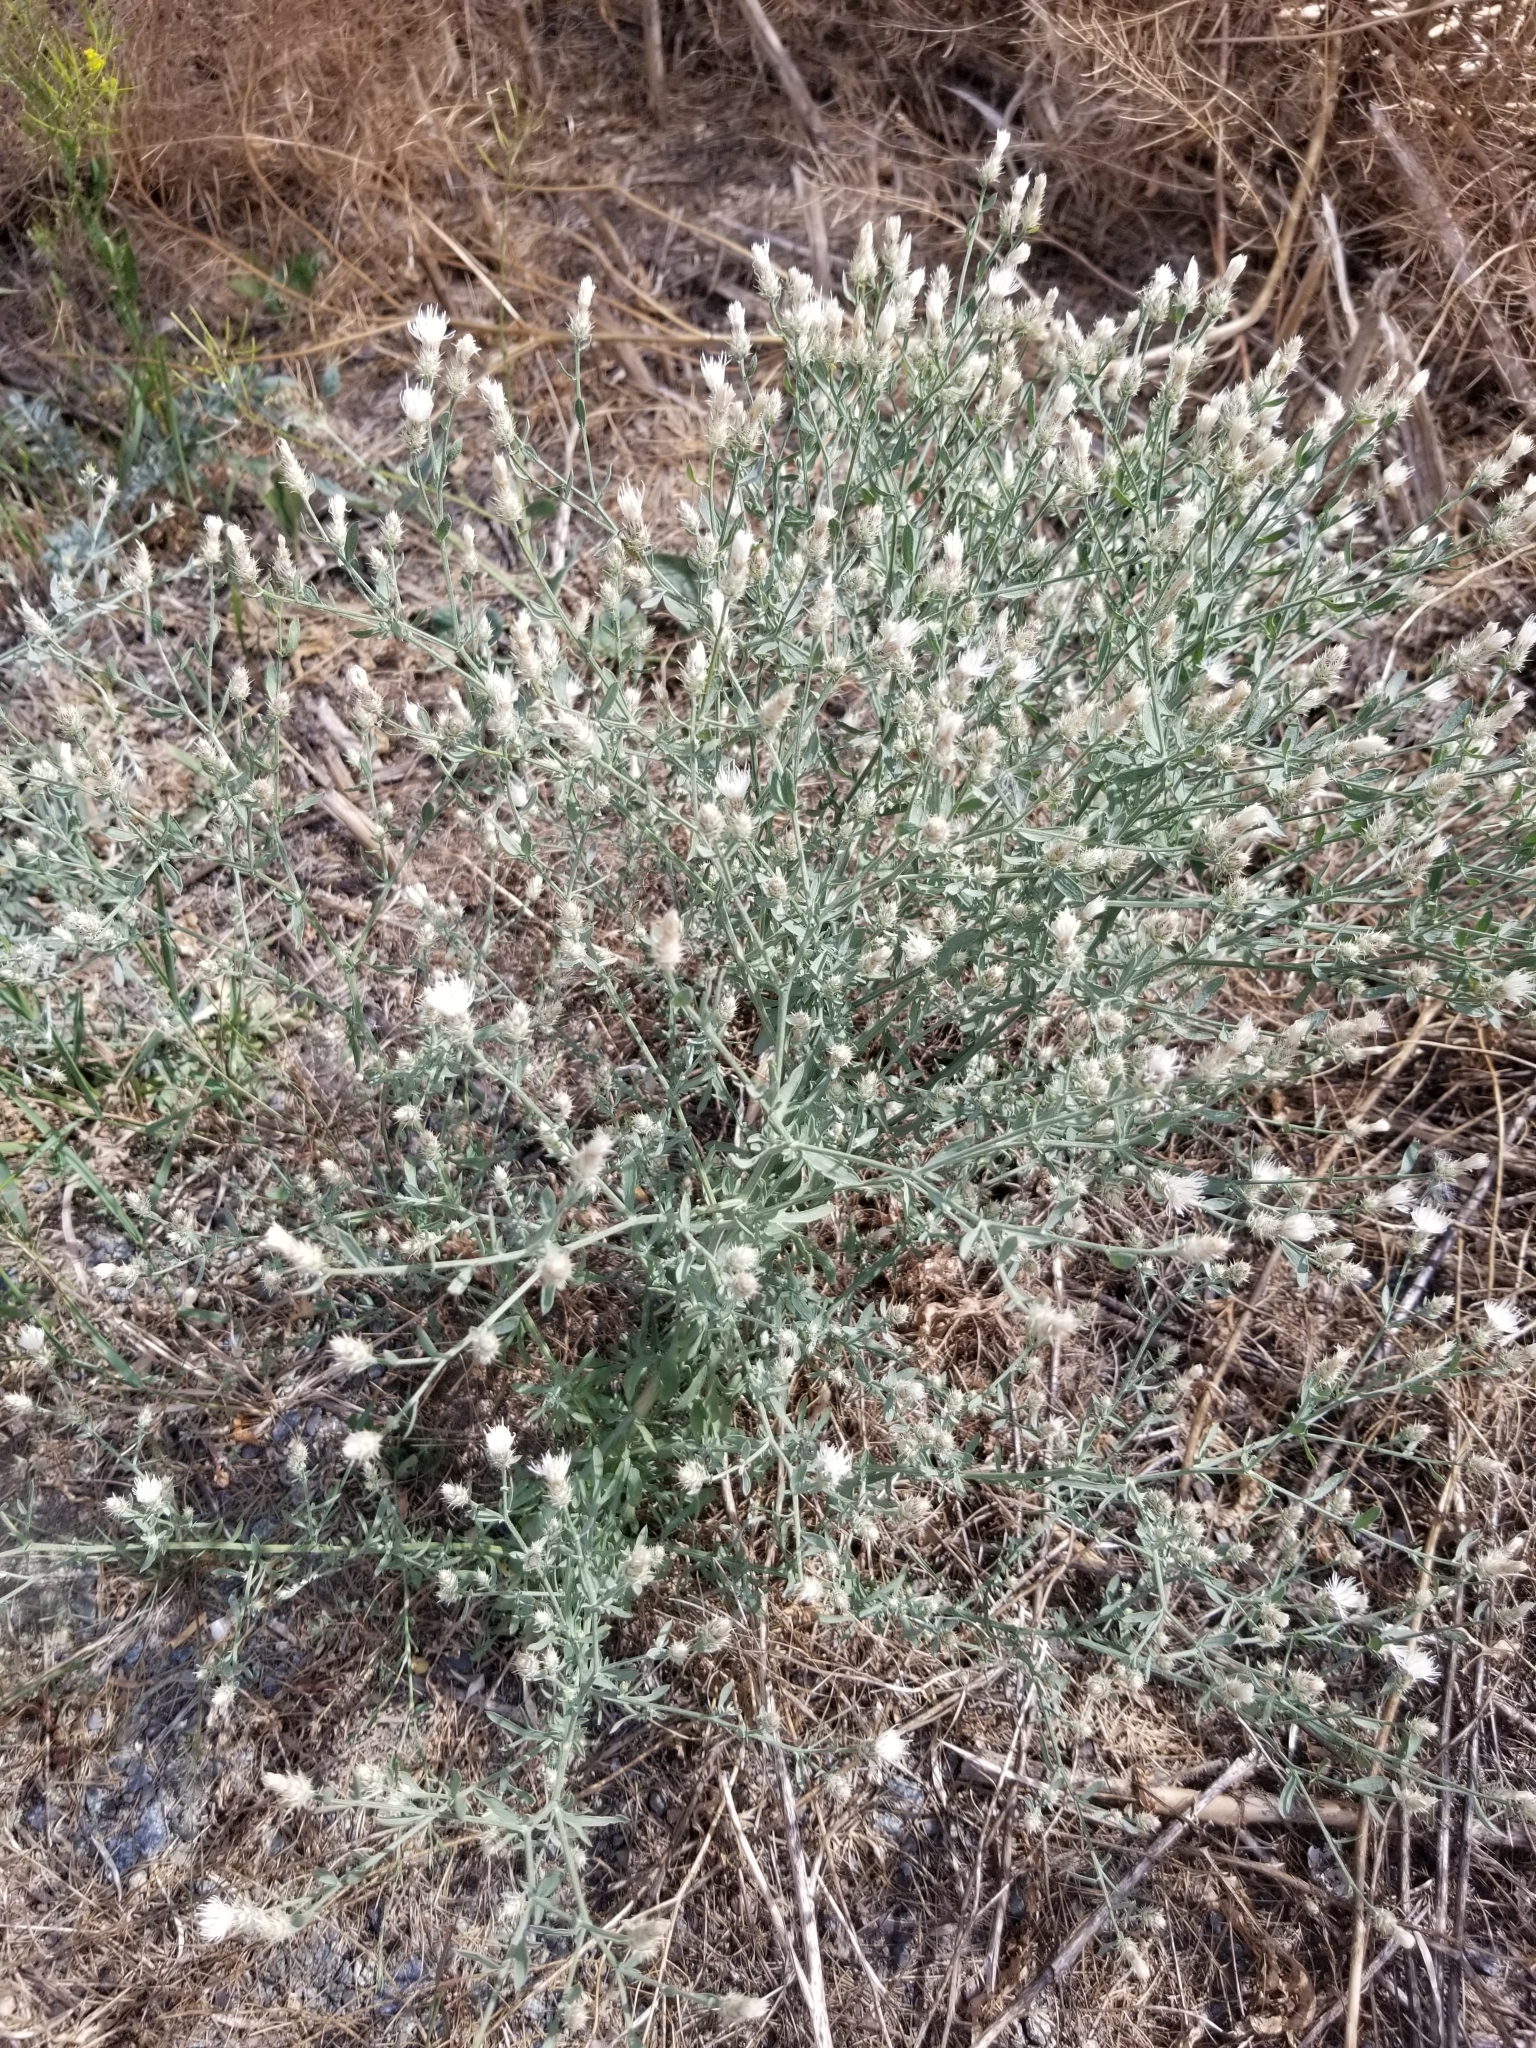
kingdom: Plantae
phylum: Tracheophyta
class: Magnoliopsida
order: Asterales
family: Asteraceae
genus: Centaurea
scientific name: Centaurea diffusa
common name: Diffuse knapweed
